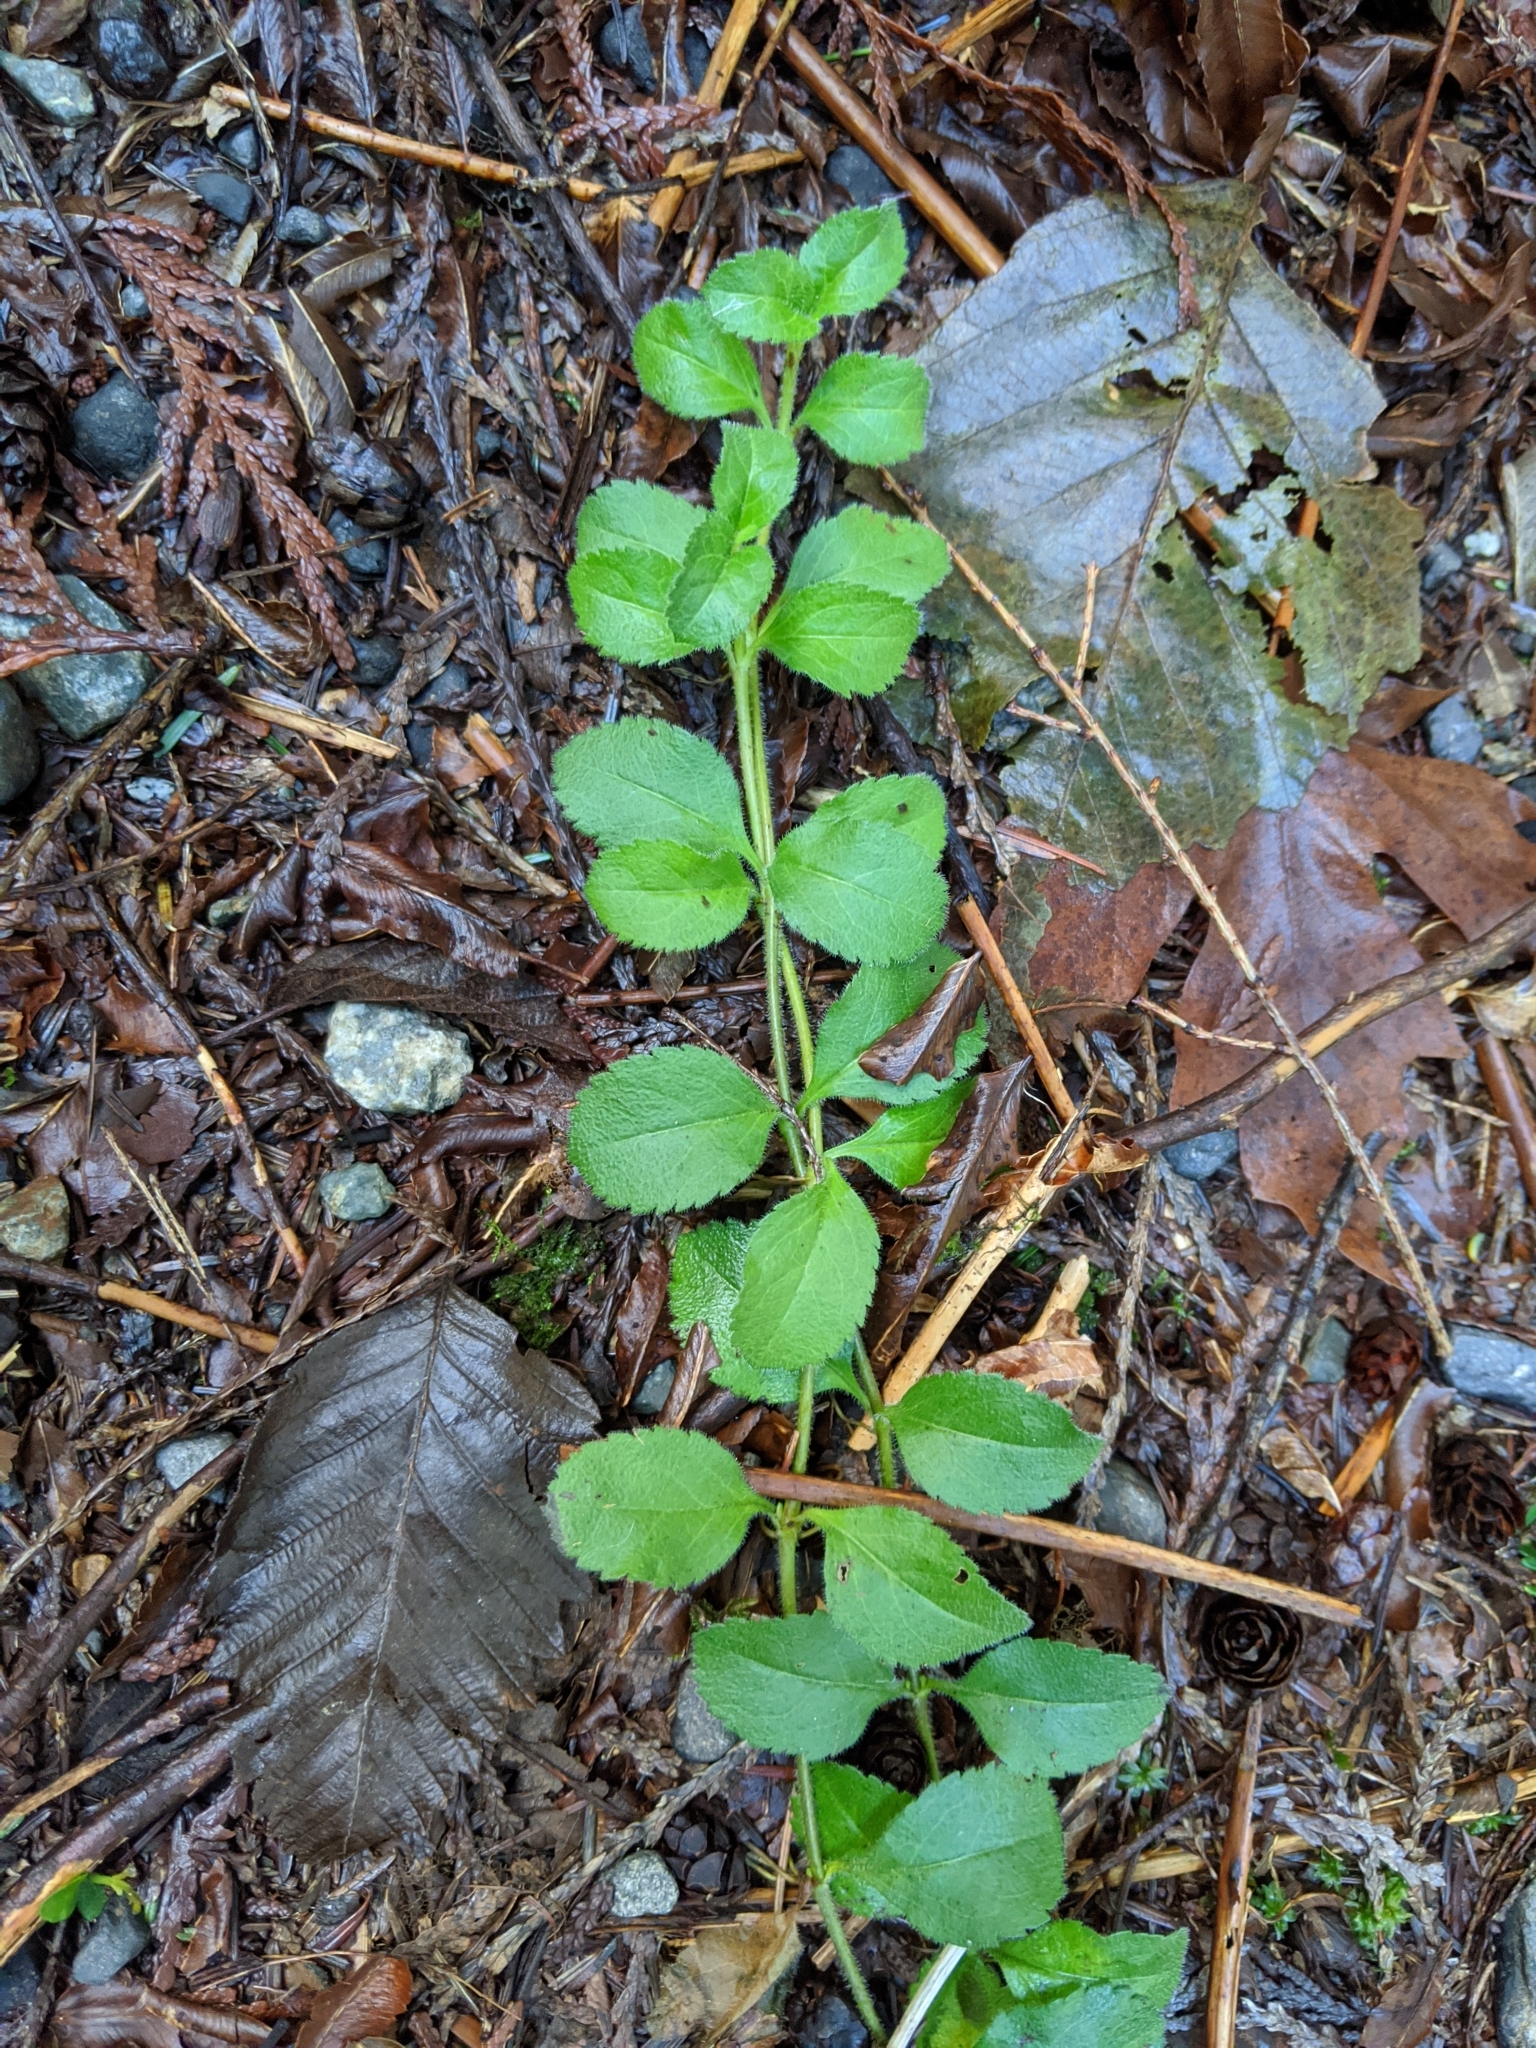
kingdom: Plantae
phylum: Tracheophyta
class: Magnoliopsida
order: Lamiales
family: Plantaginaceae
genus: Veronica
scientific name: Veronica officinalis
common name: Common speedwell
